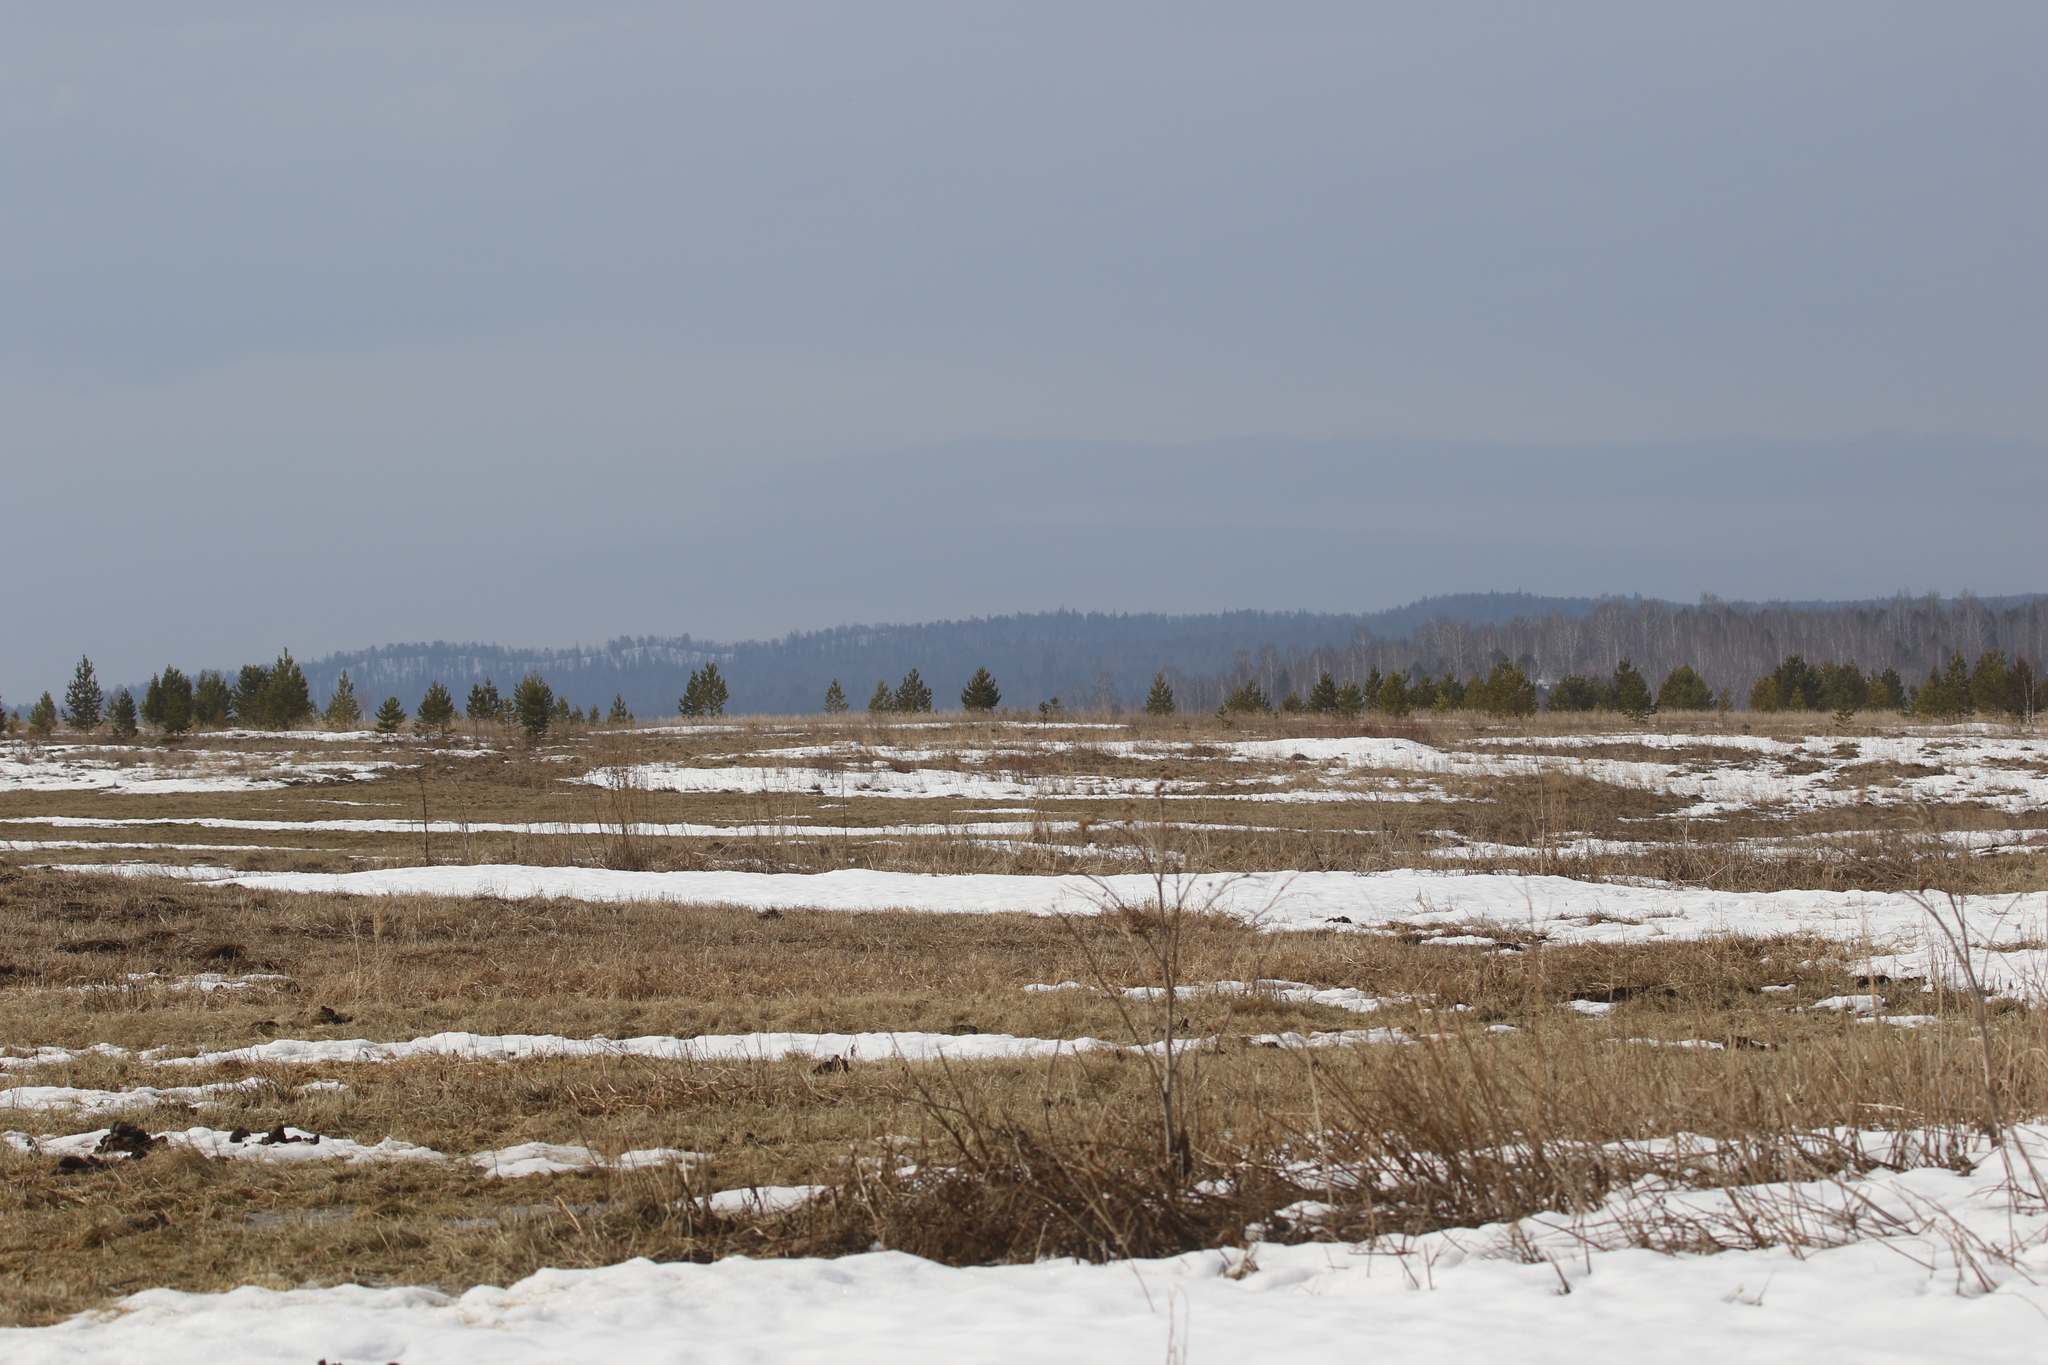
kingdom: Plantae
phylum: Tracheophyta
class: Pinopsida
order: Pinales
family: Pinaceae
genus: Pinus
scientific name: Pinus sylvestris
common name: Scots pine
